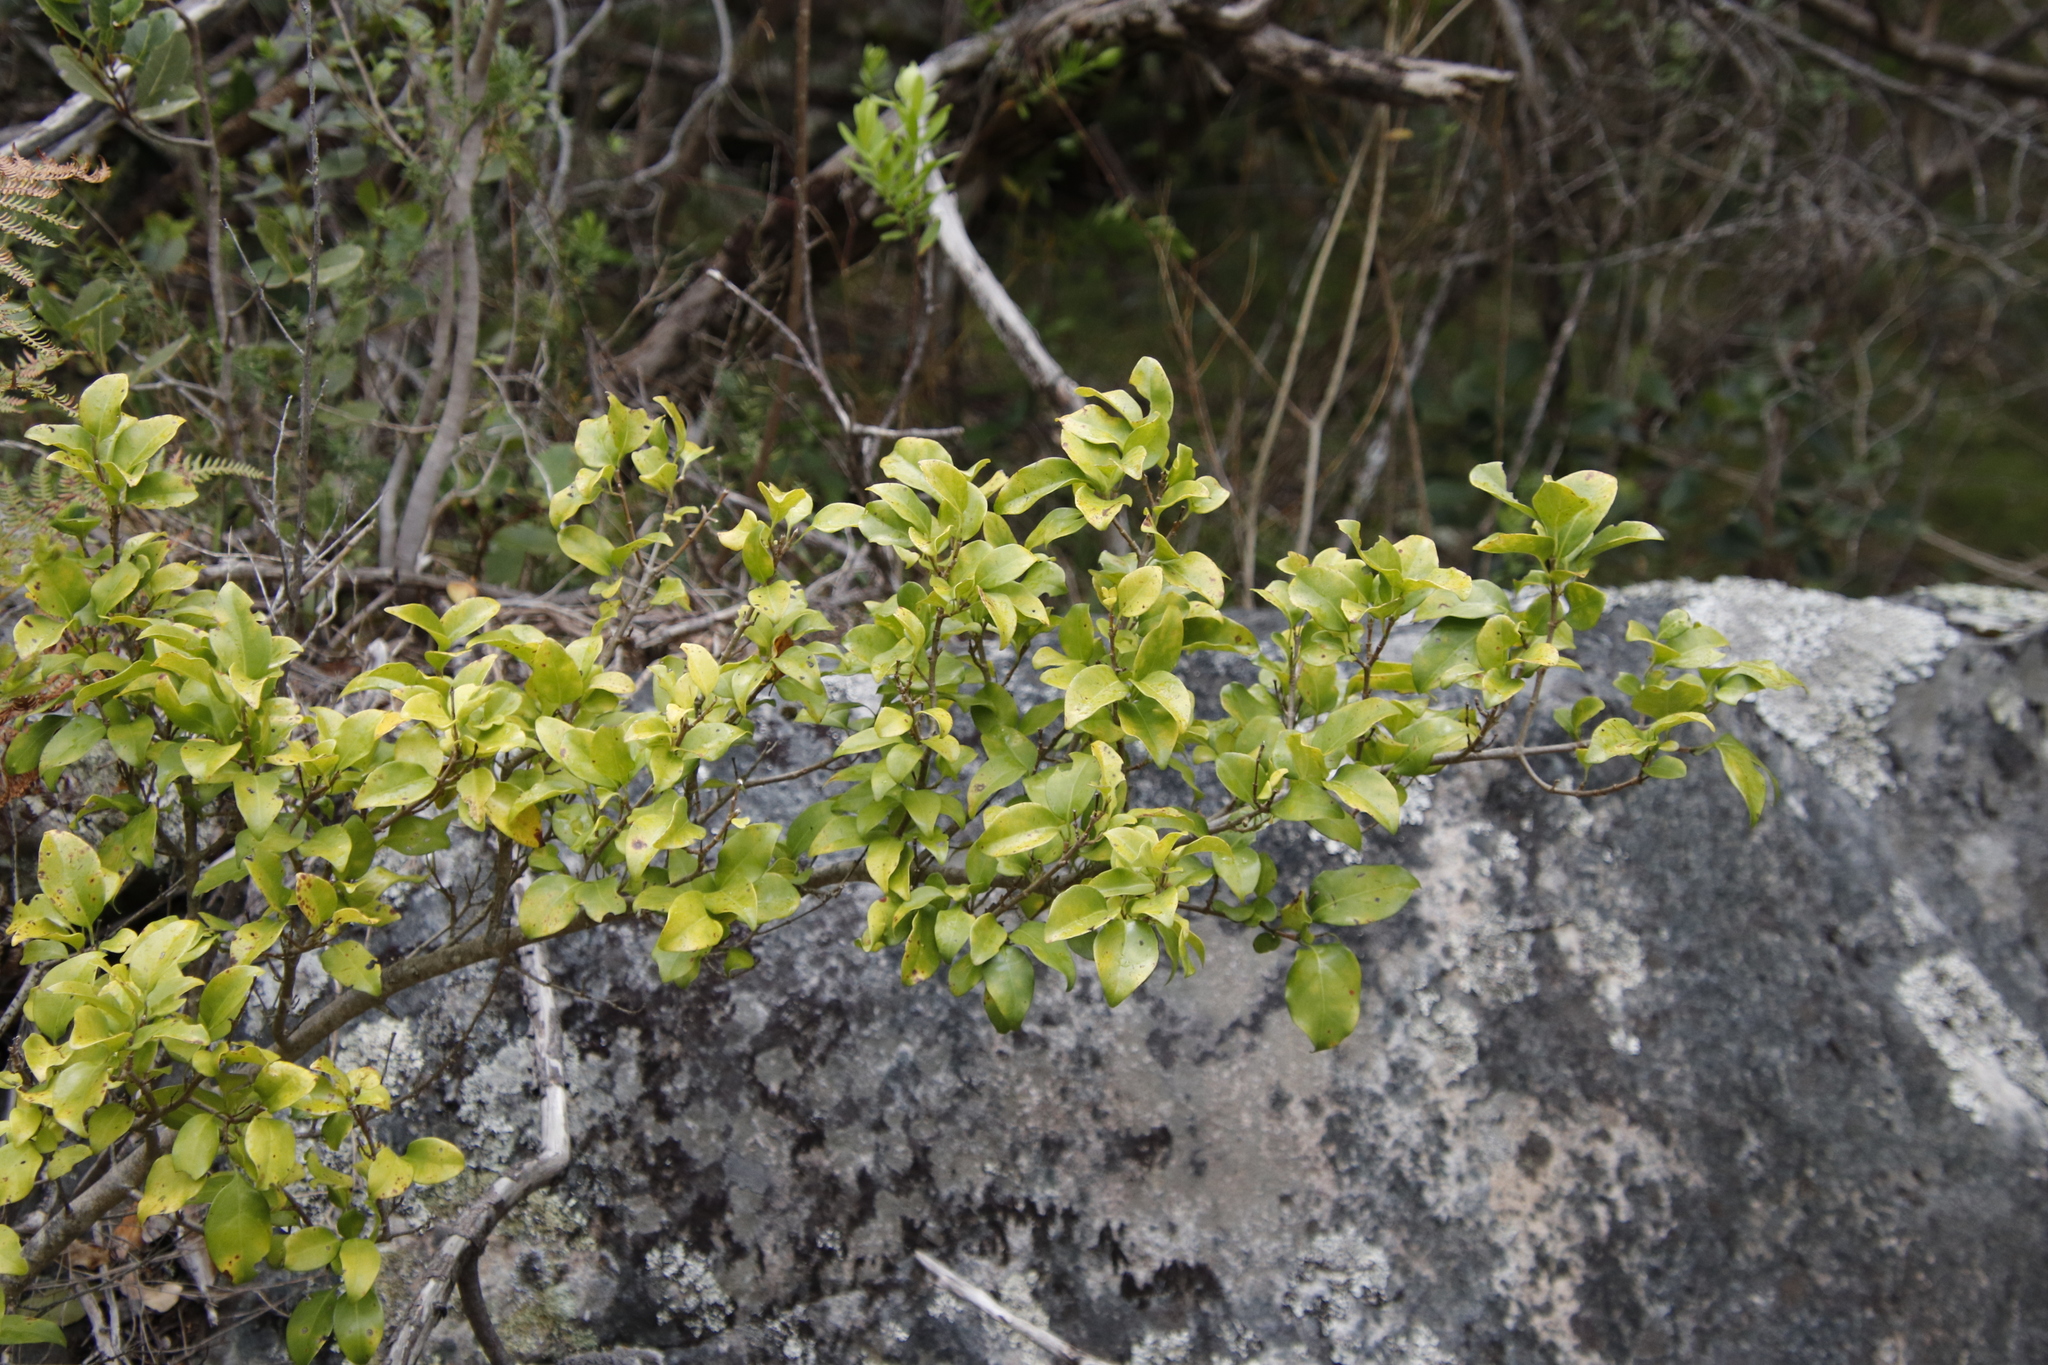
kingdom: Plantae
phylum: Tracheophyta
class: Magnoliopsida
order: Gentianales
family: Rubiaceae
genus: Canthium
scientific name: Canthium inerme
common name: Unarmed turkey-berry
